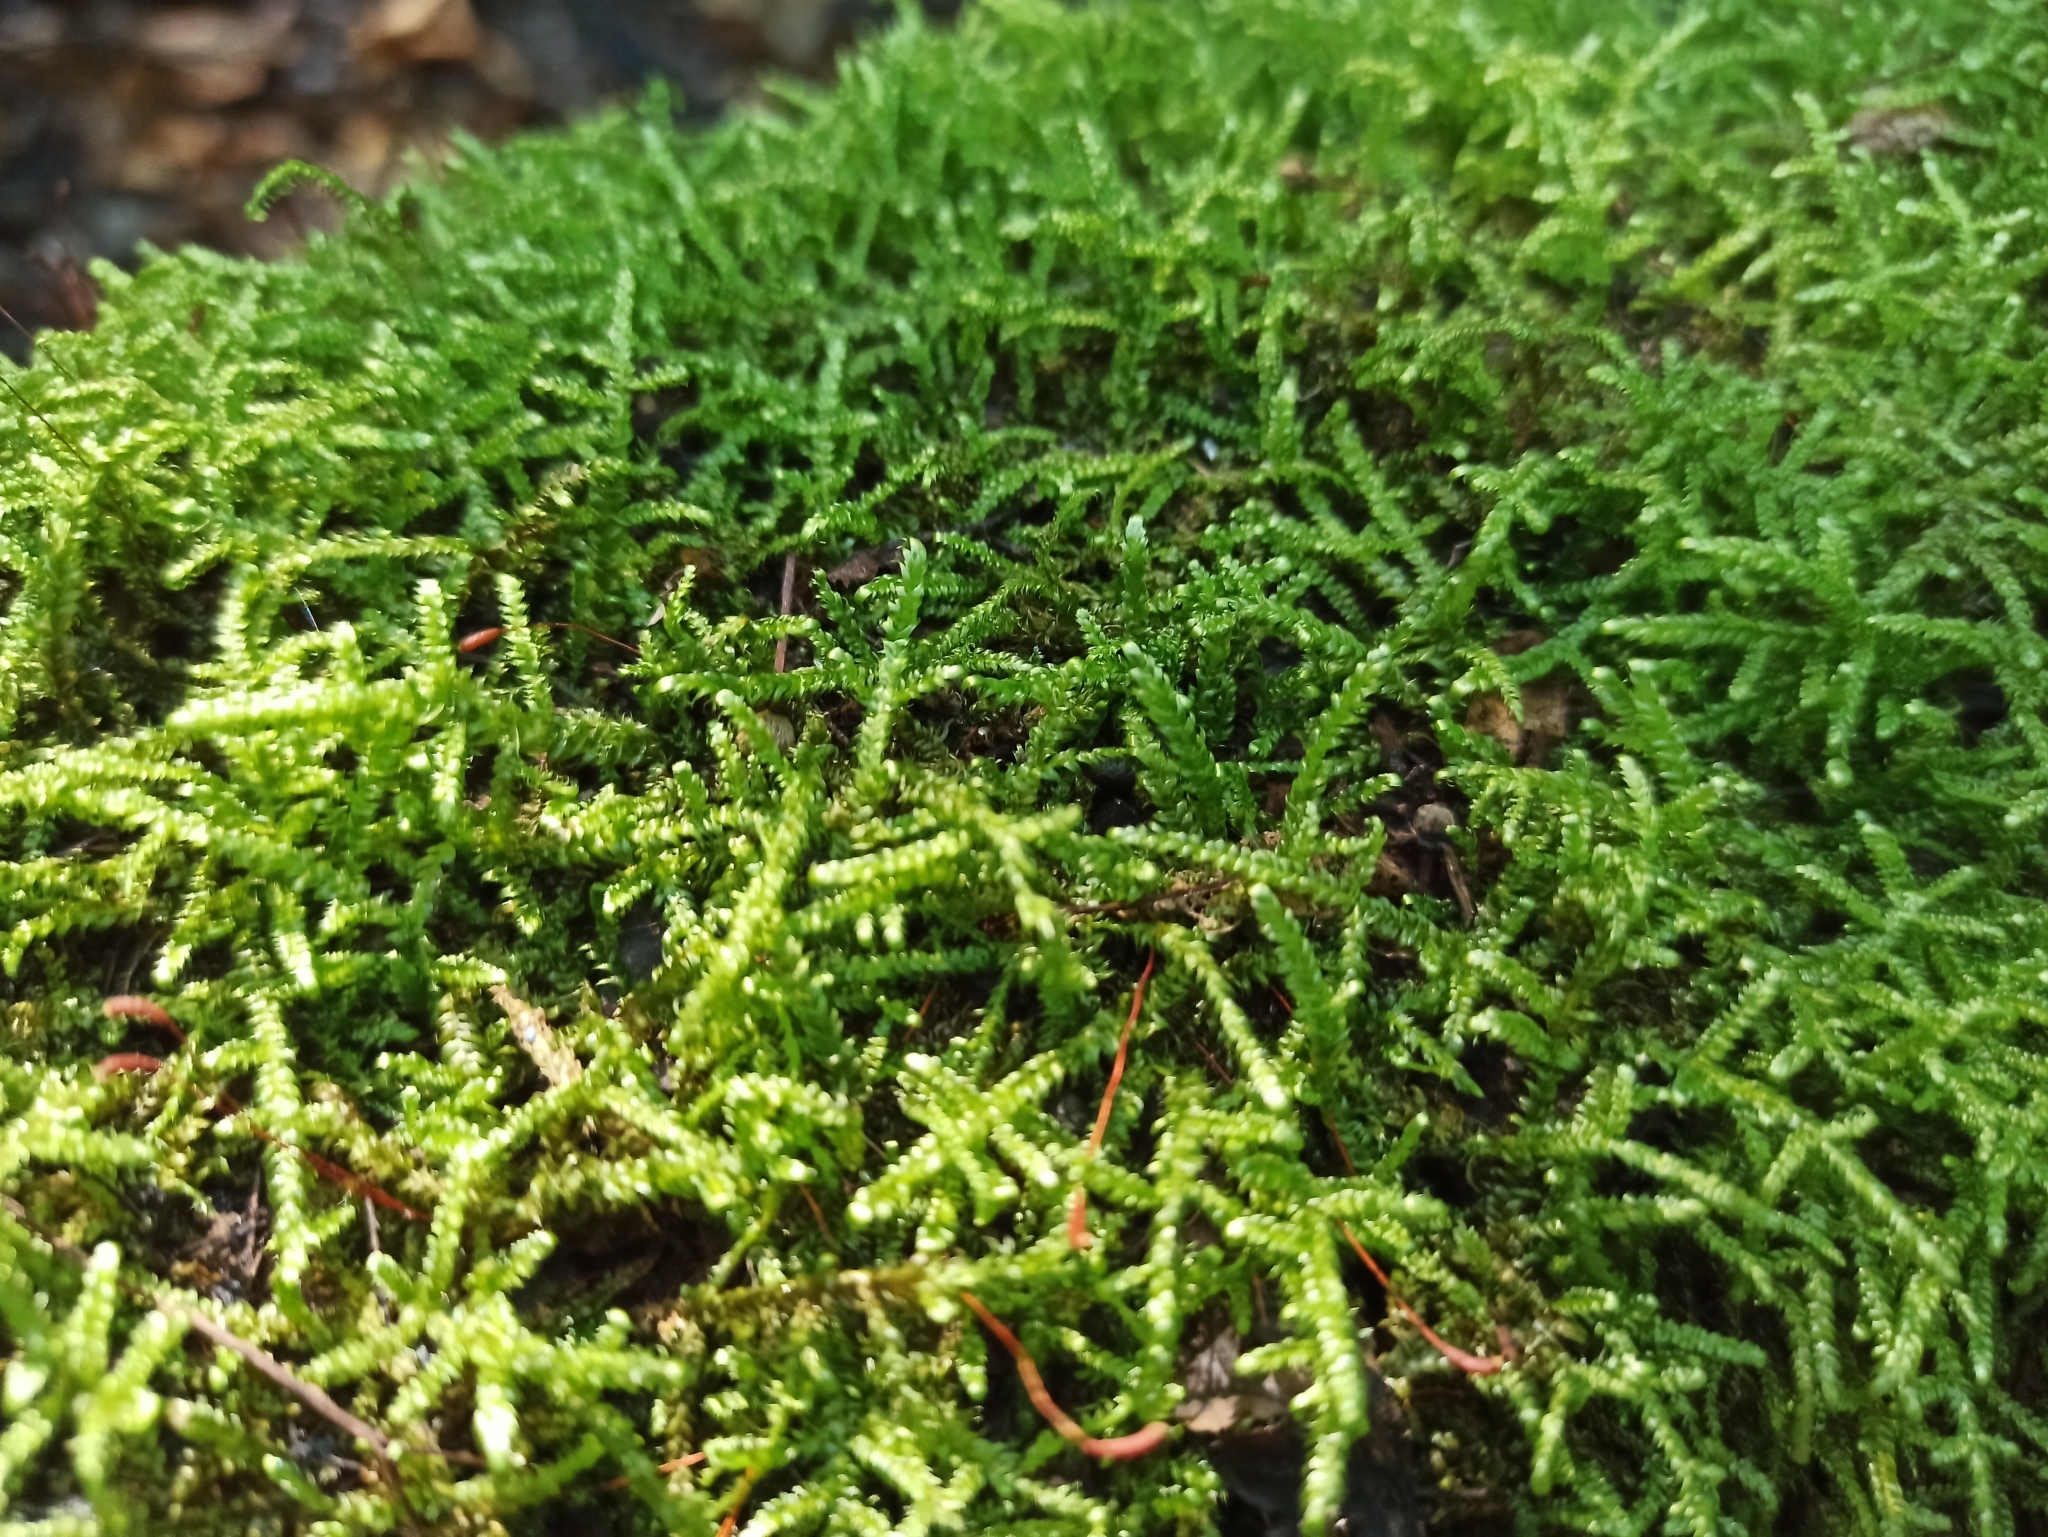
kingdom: Plantae
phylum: Bryophyta
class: Bryopsida
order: Hypnales
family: Hypnaceae
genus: Hypnum
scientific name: Hypnum cupressiforme
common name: Cypress-leaved plait-moss
